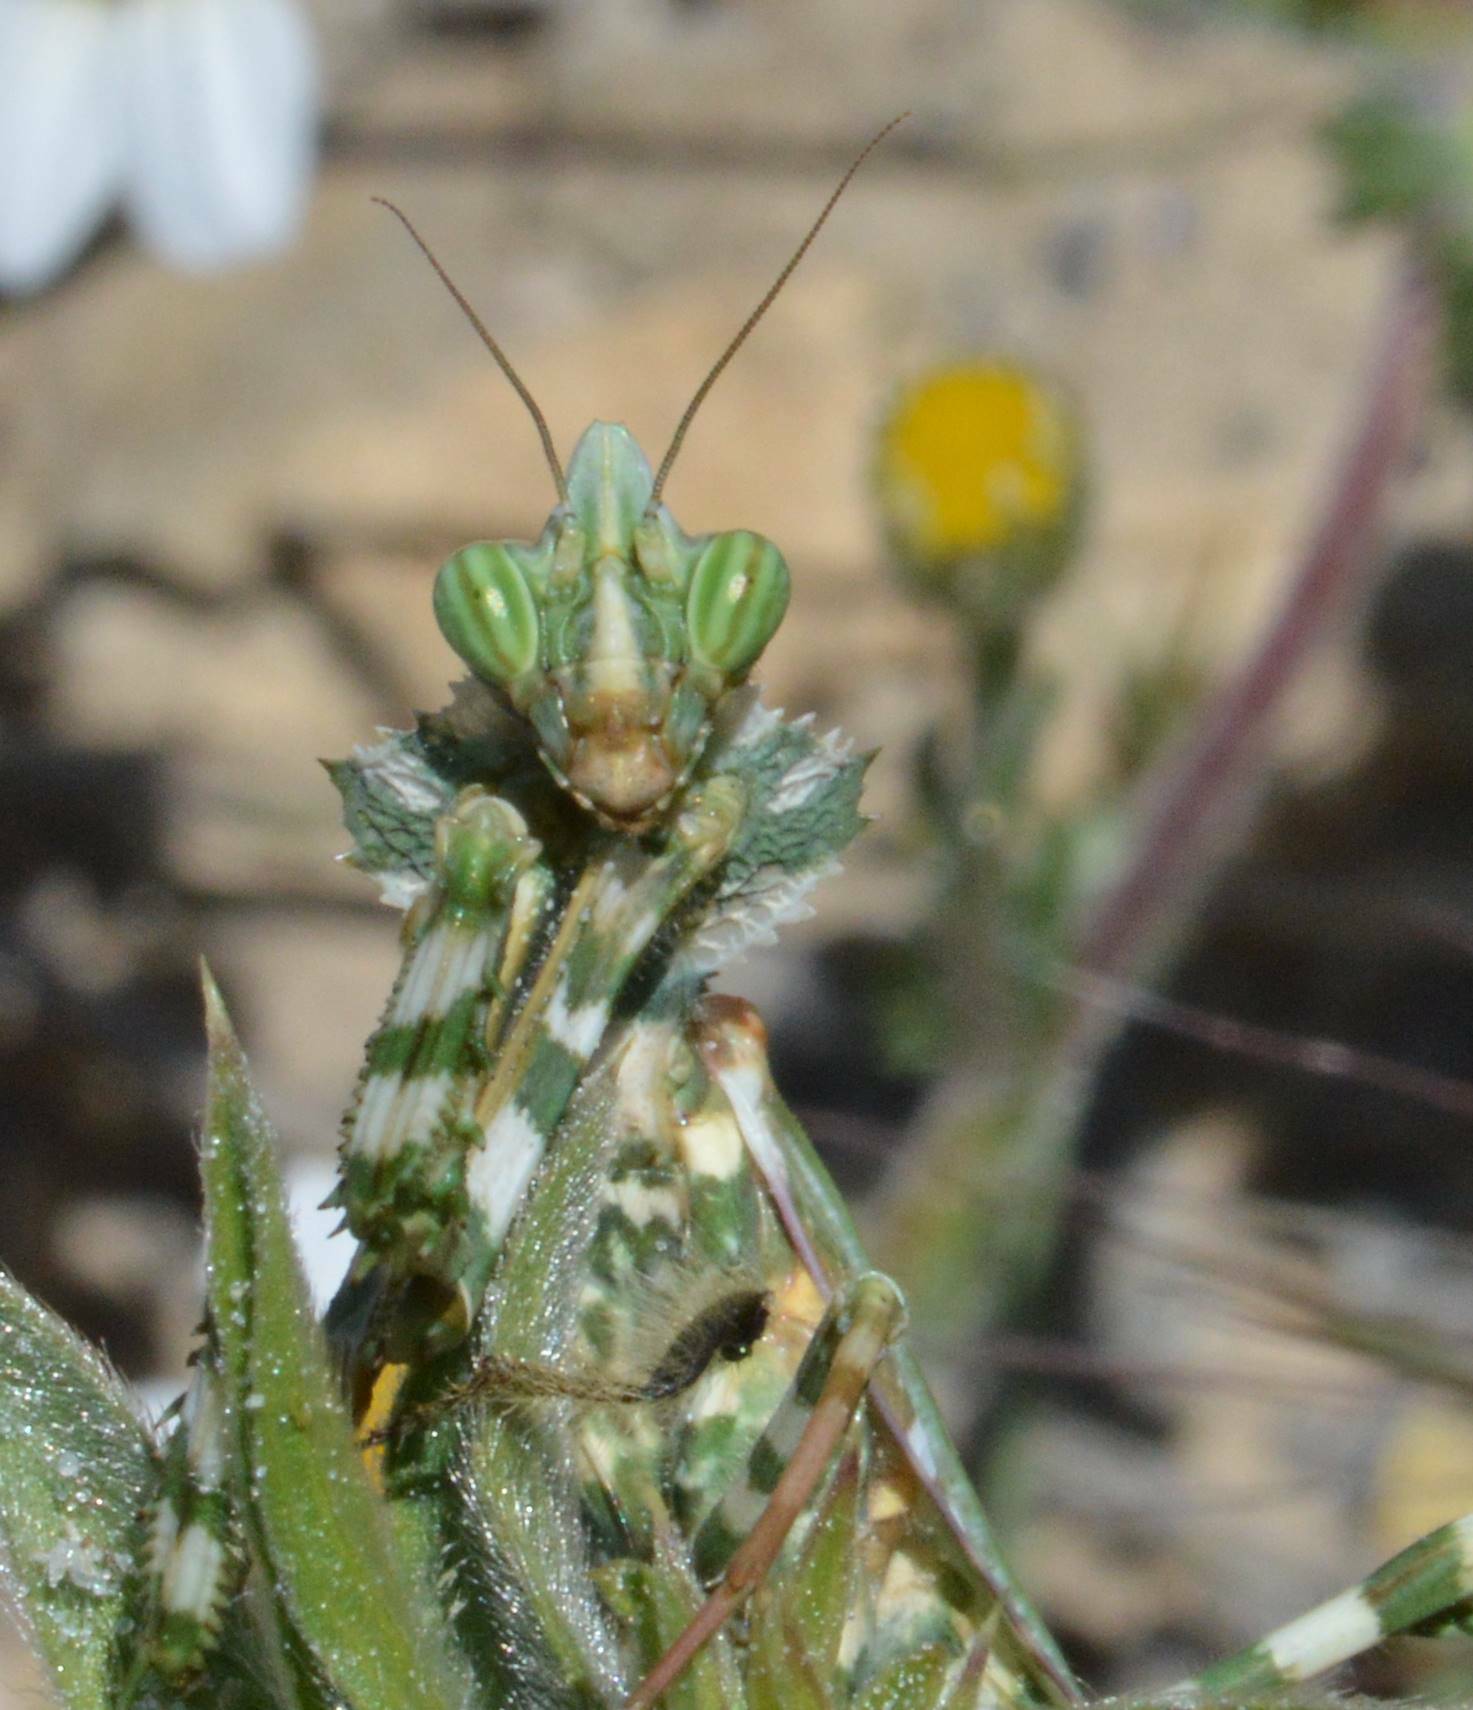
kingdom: Animalia
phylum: Arthropoda
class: Insecta
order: Mantodea
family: Empusidae
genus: Blepharopsis
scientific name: Blepharopsis mendica
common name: Devil's flower mantis
